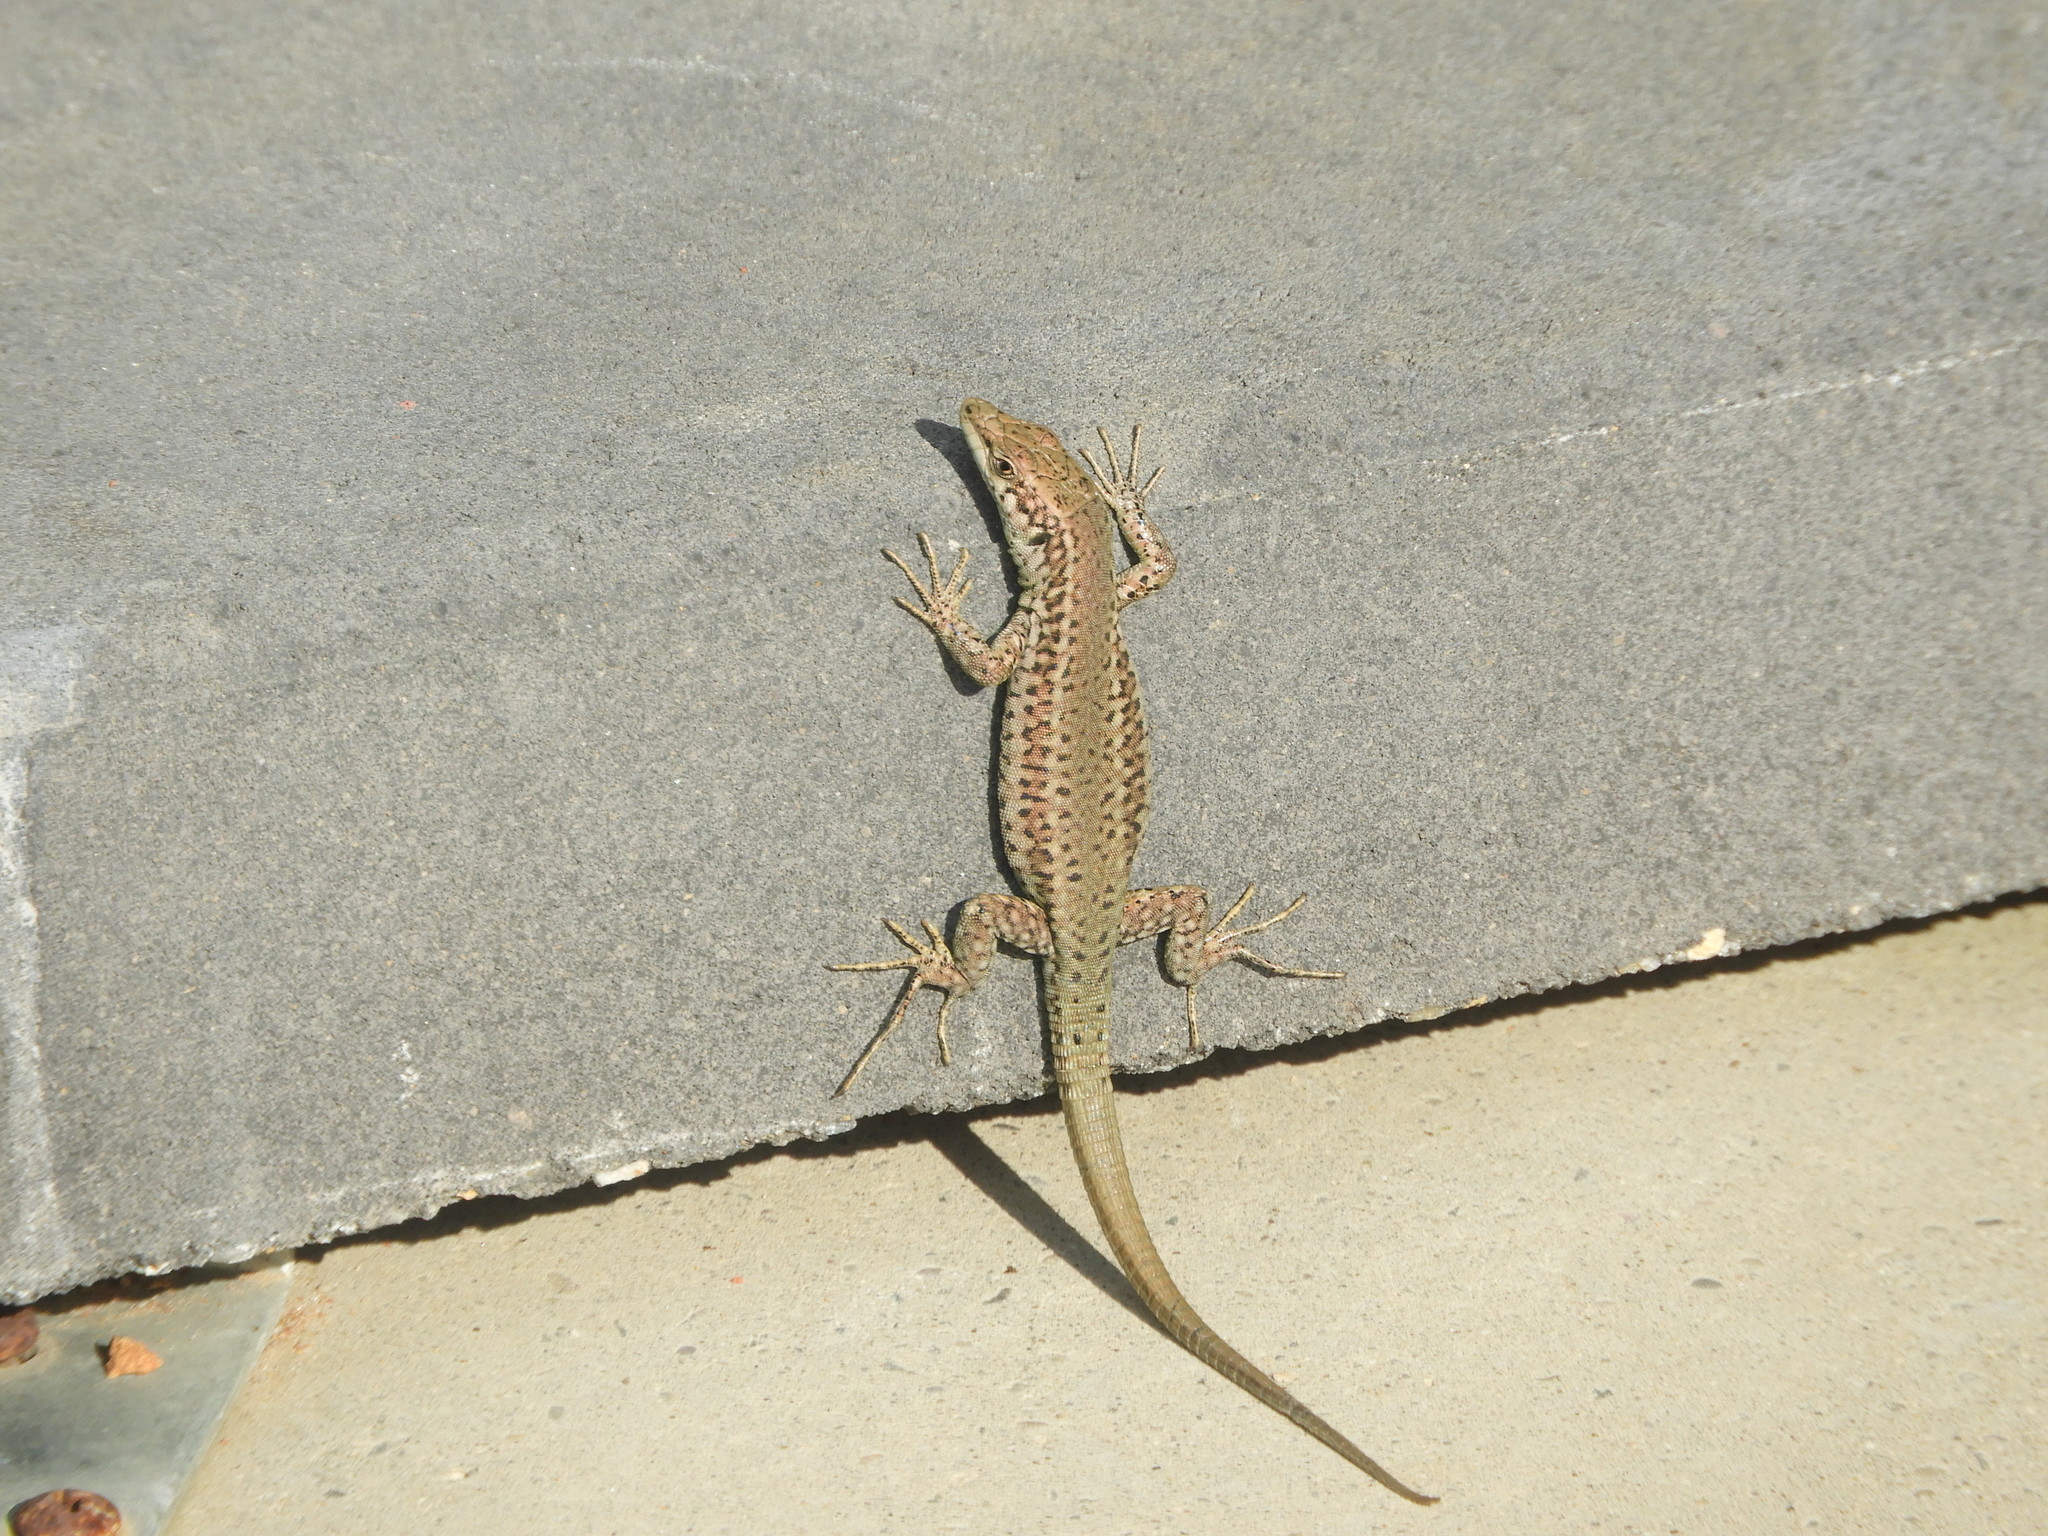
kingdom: Animalia
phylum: Chordata
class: Squamata
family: Lacertidae
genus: Podarcis
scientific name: Podarcis vaucheri
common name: Vaucher's wall lizard
